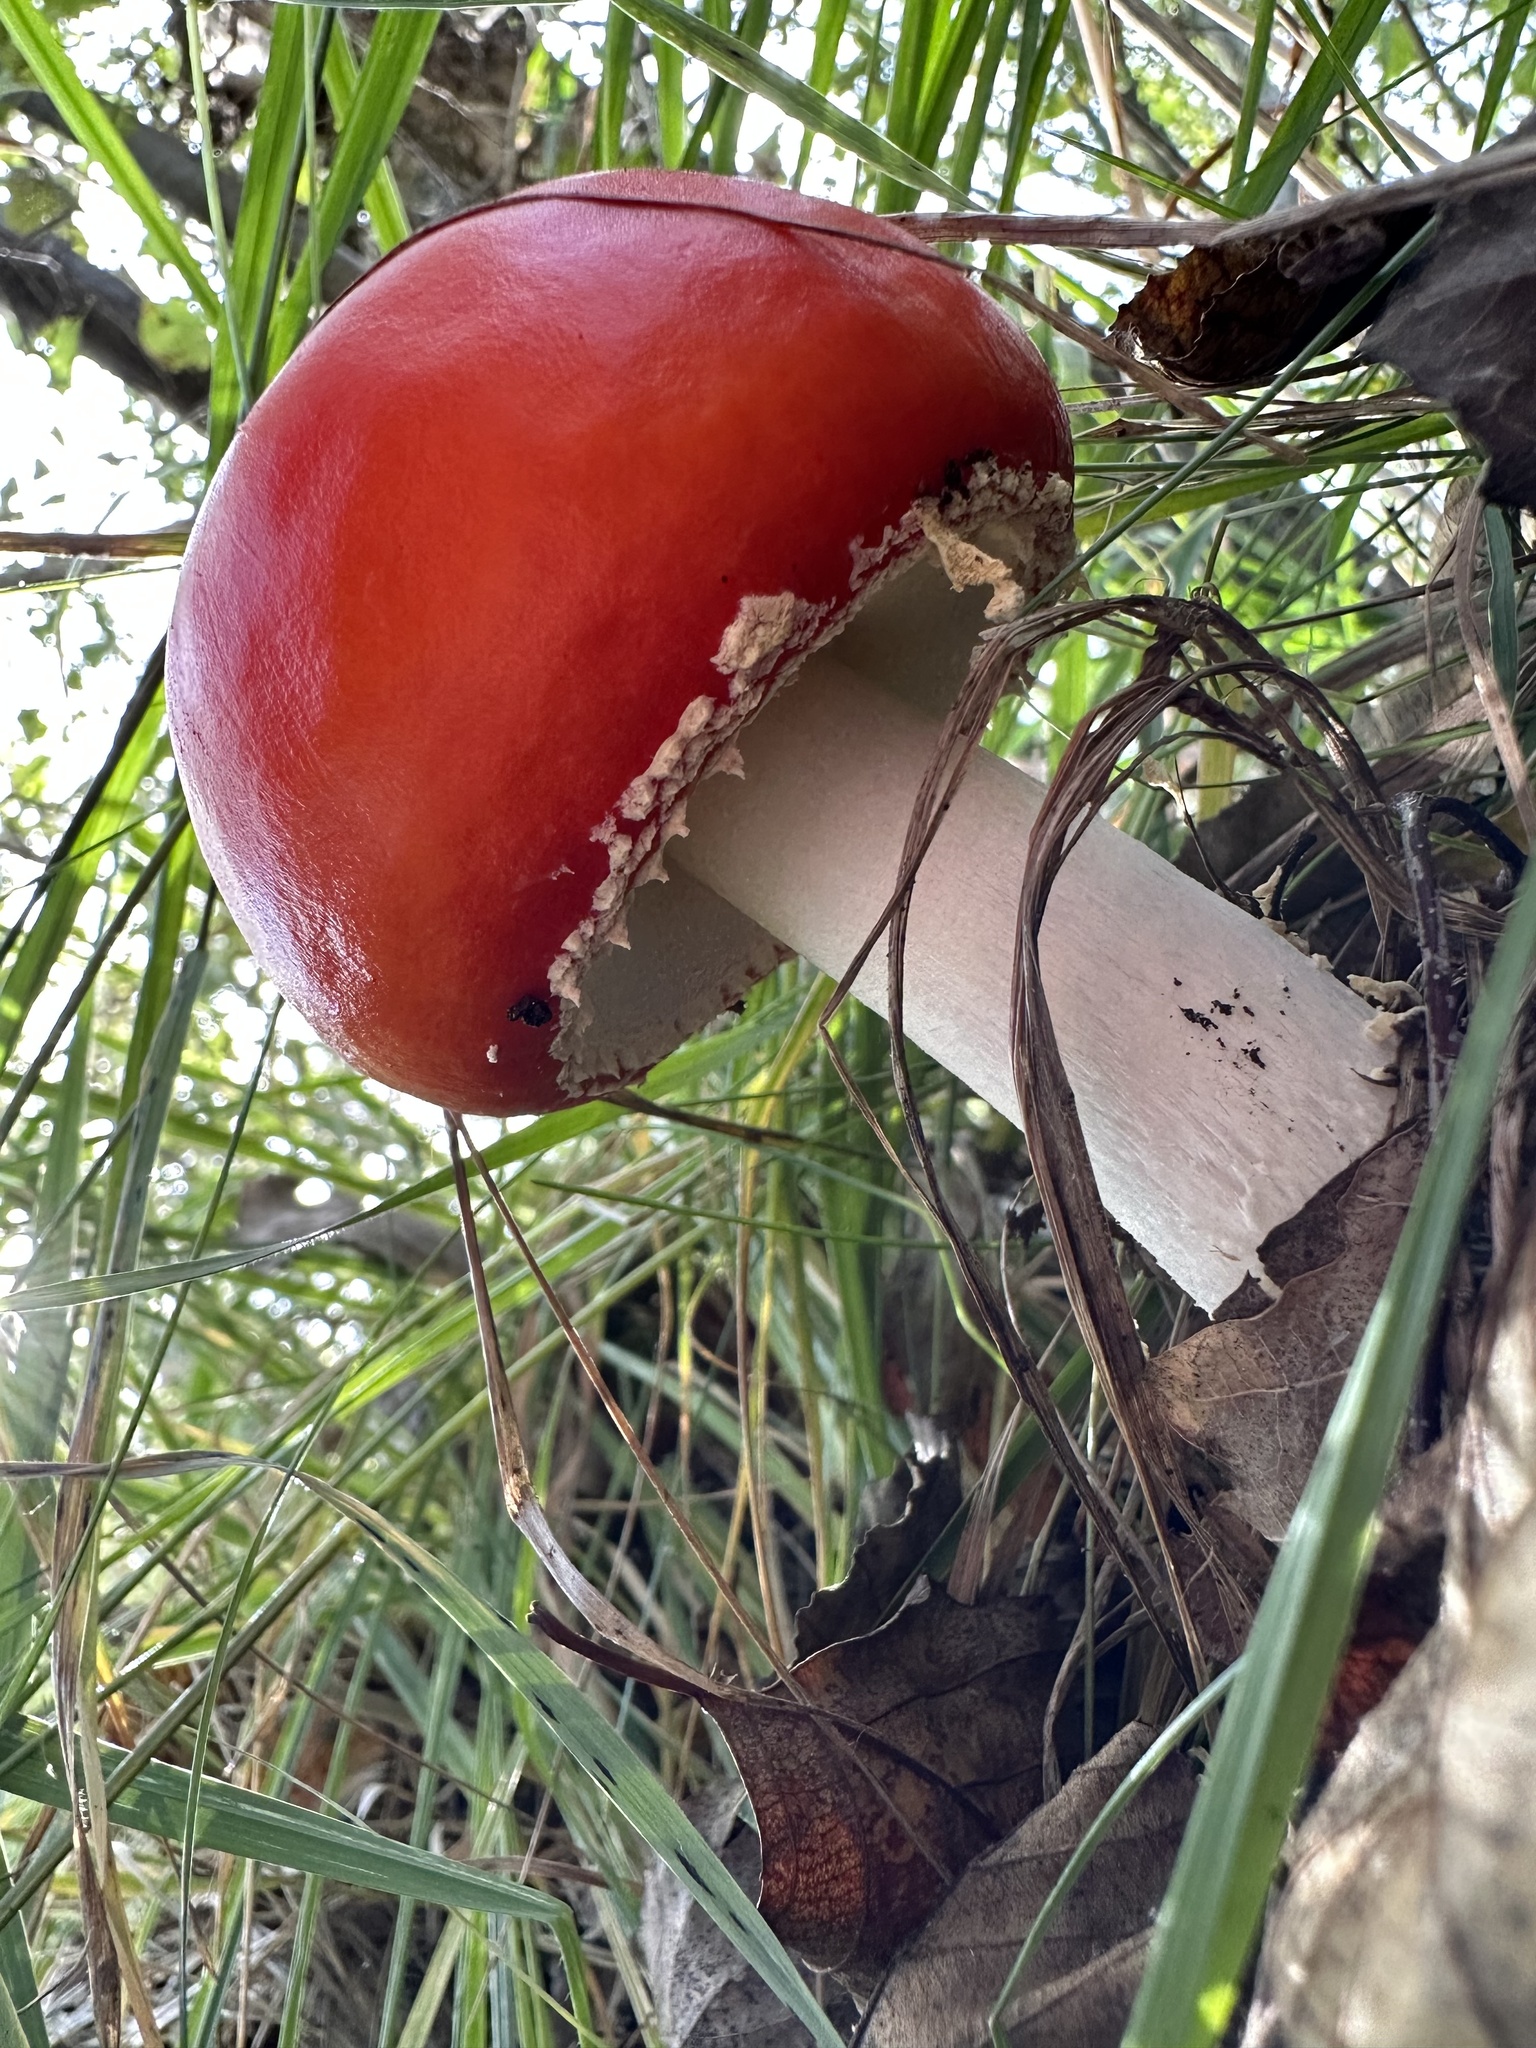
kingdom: Fungi
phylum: Basidiomycota
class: Agaricomycetes
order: Agaricales
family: Amanitaceae
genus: Amanita
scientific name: Amanita muscaria
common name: Fly agaric
